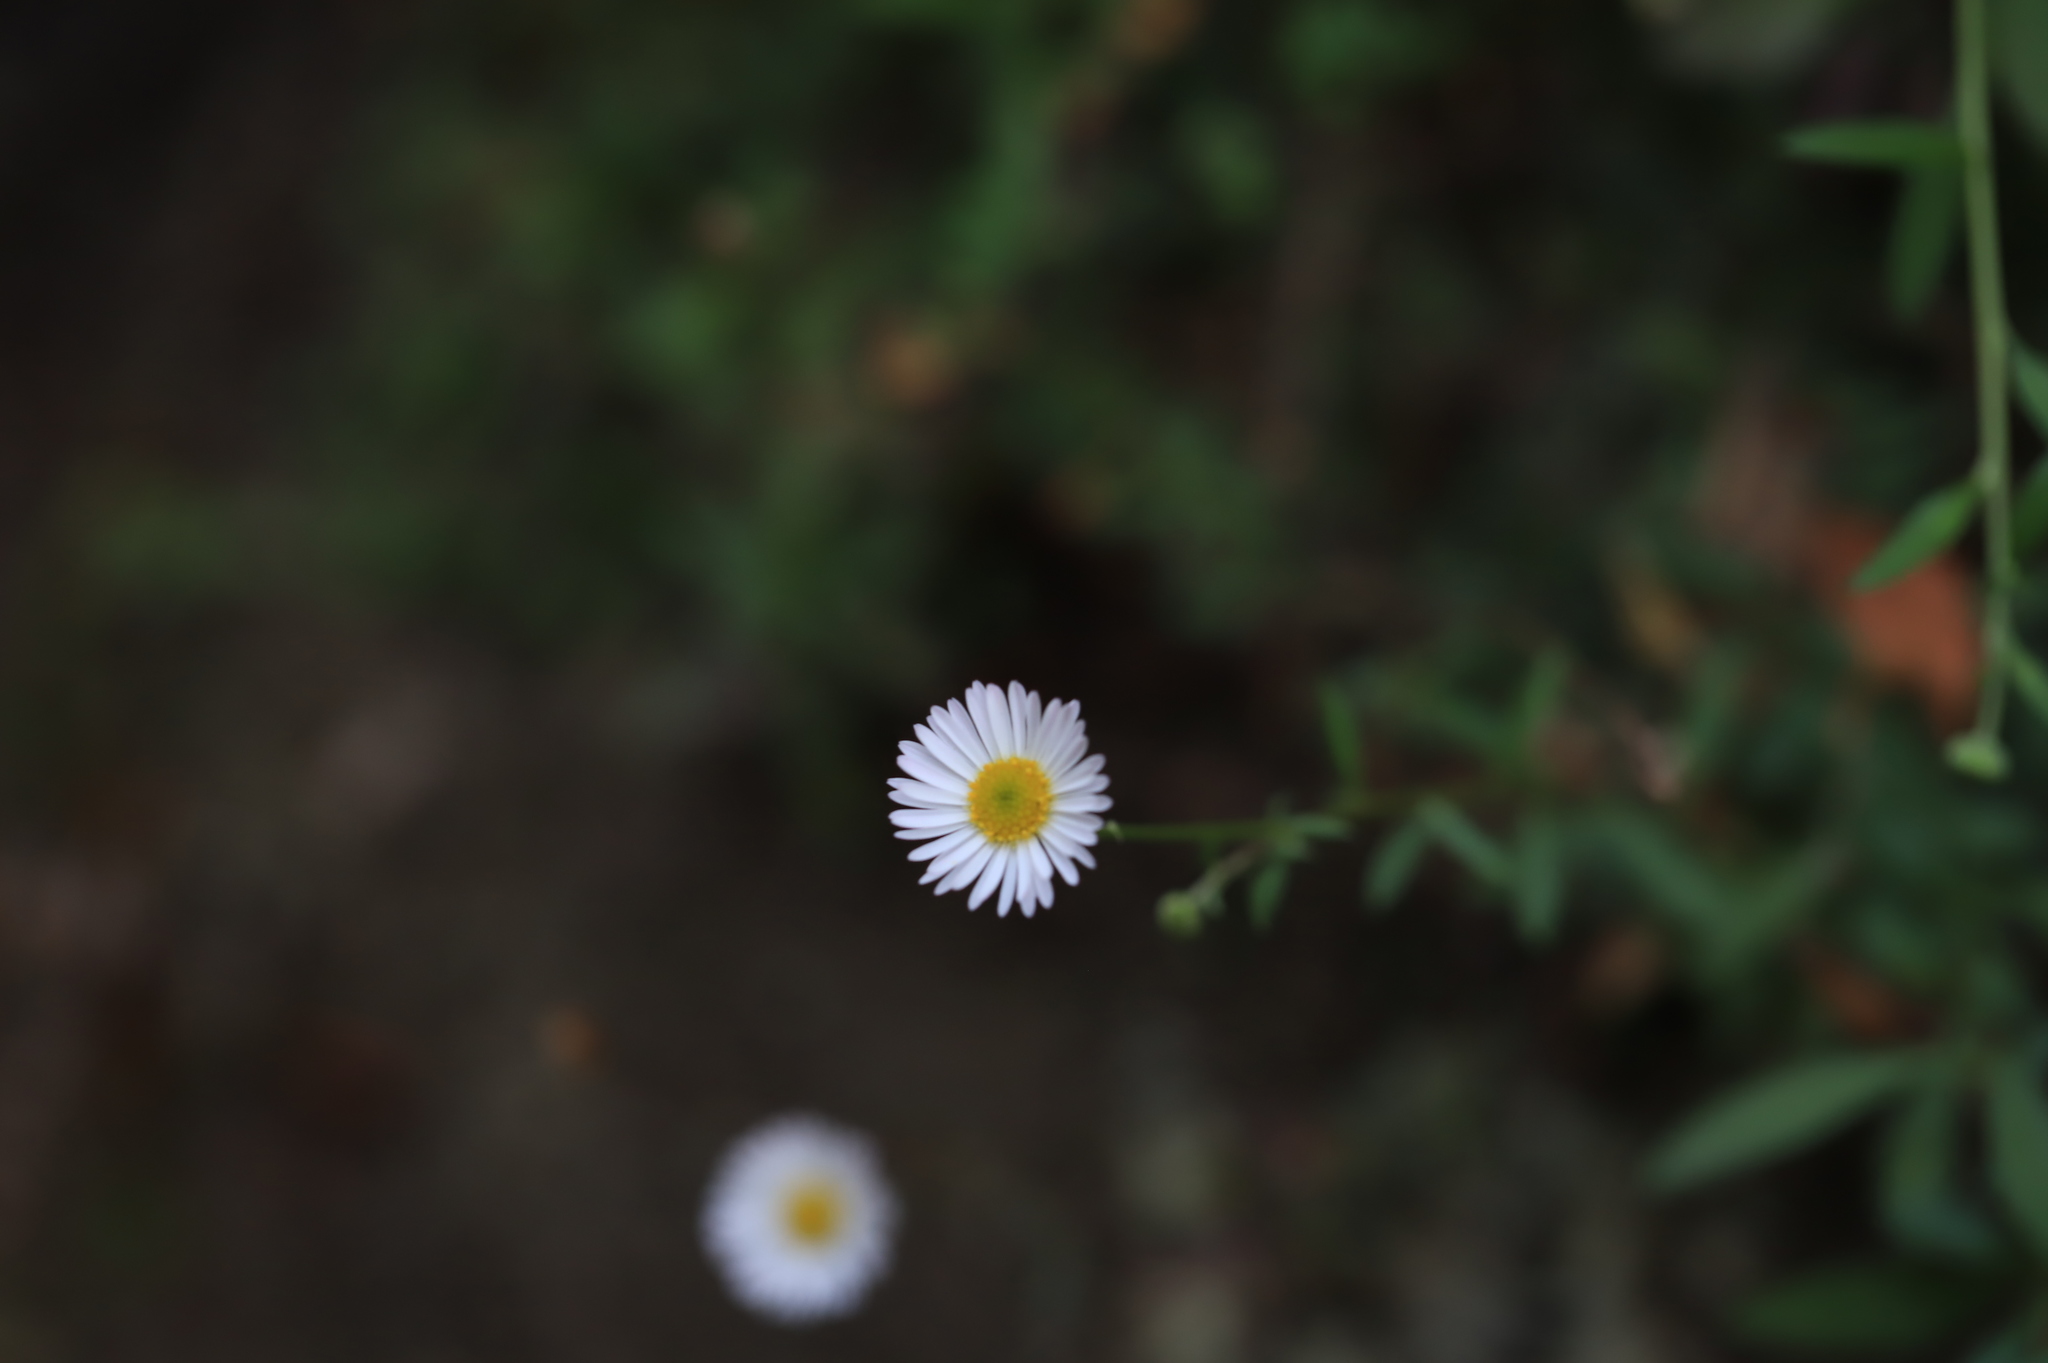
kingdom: Plantae
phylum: Tracheophyta
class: Magnoliopsida
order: Asterales
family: Asteraceae
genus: Erigeron
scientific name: Erigeron karvinskianus
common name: Mexican fleabane
